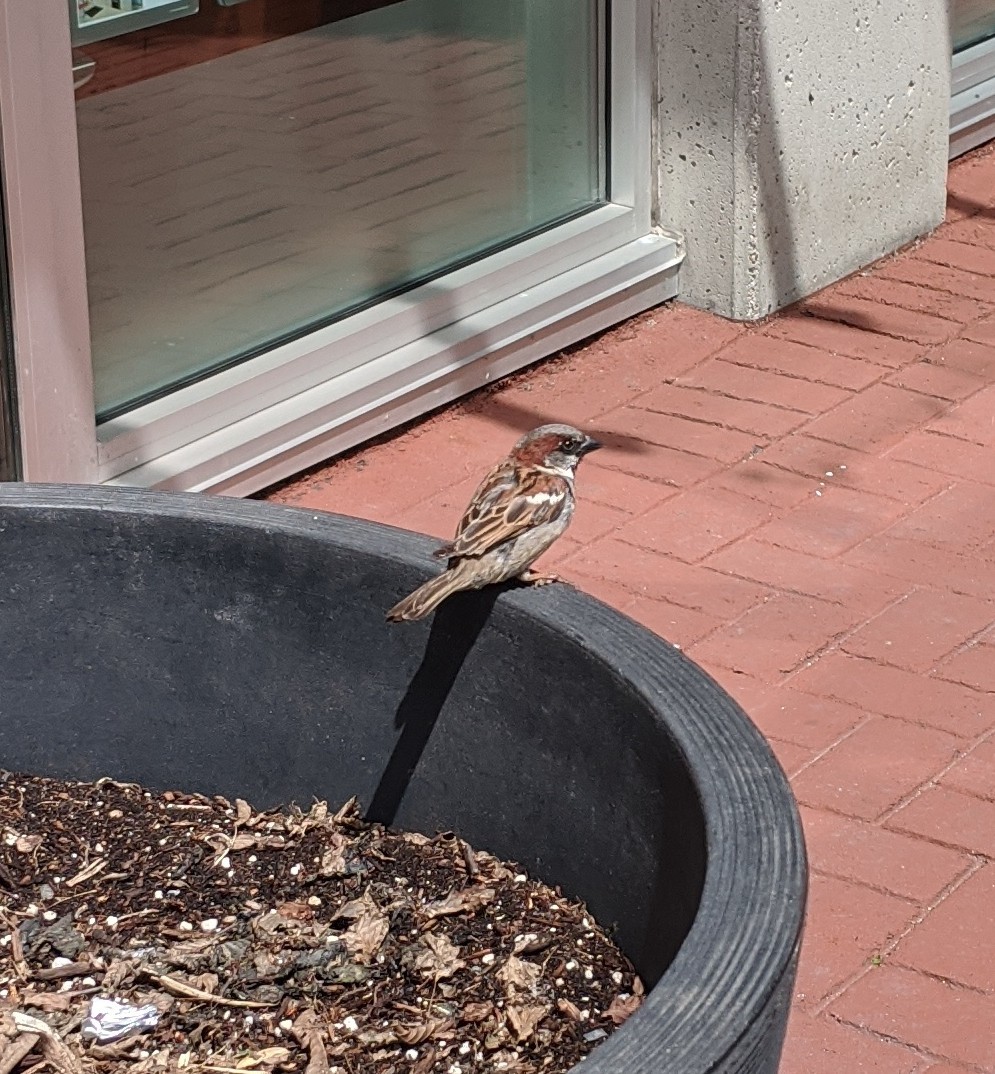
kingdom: Animalia
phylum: Chordata
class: Aves
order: Passeriformes
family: Passeridae
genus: Passer
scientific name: Passer domesticus
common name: House sparrow
